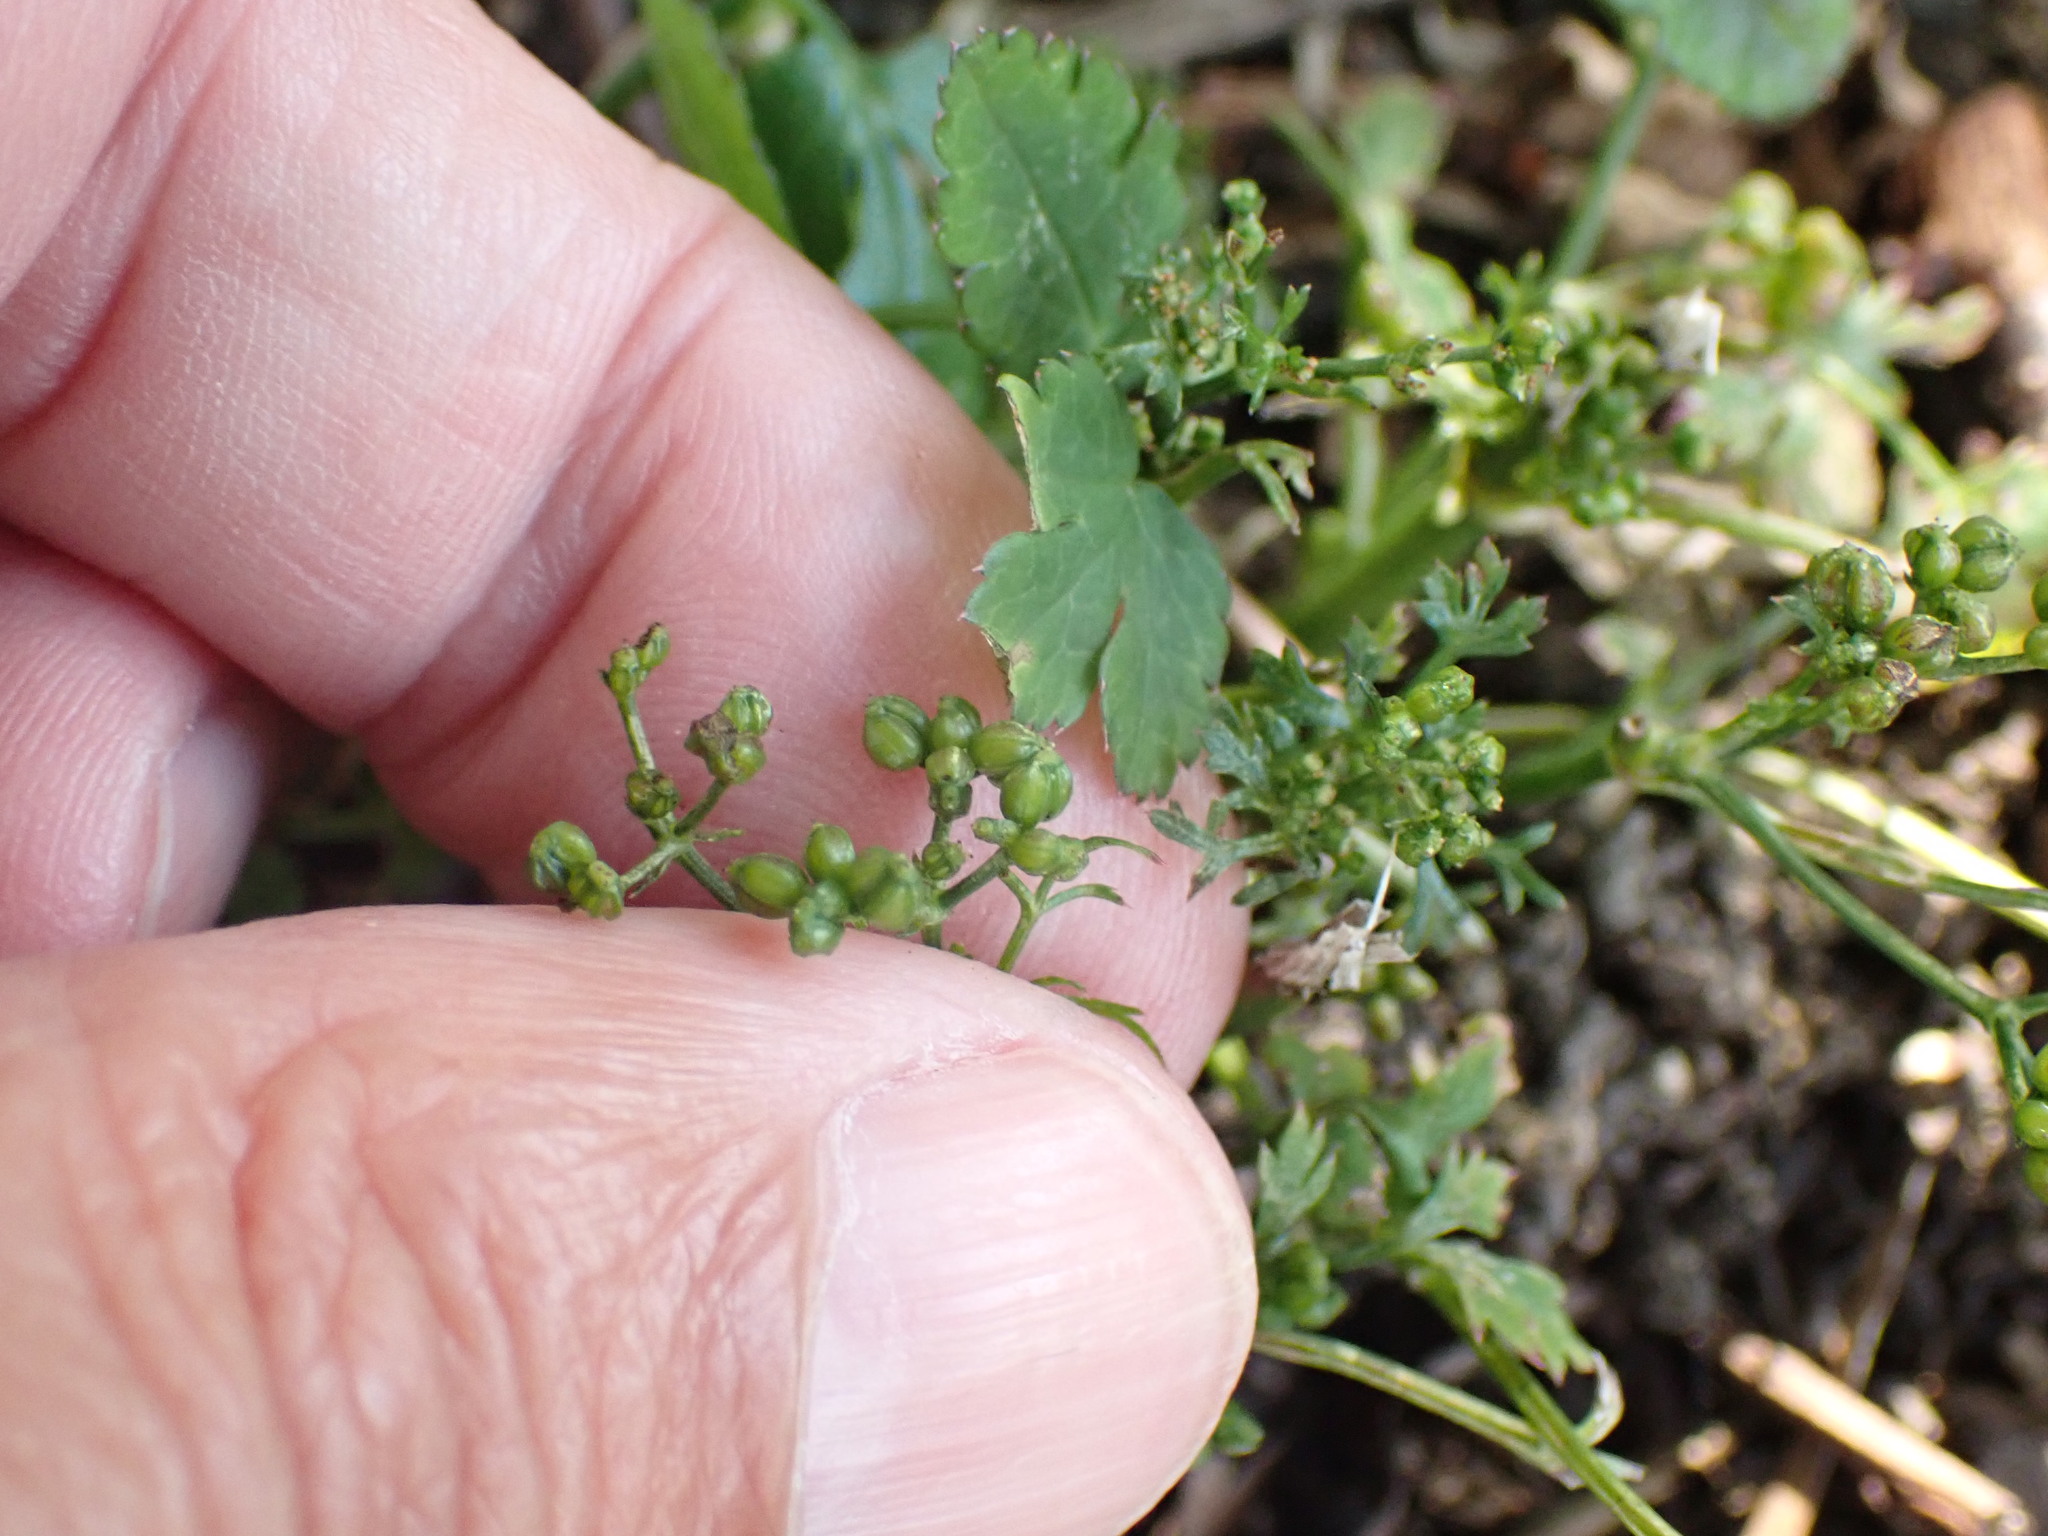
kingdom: Plantae
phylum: Tracheophyta
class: Magnoliopsida
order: Apiales
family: Apiaceae
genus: Sison
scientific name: Sison amomum
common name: Stone-parsley
